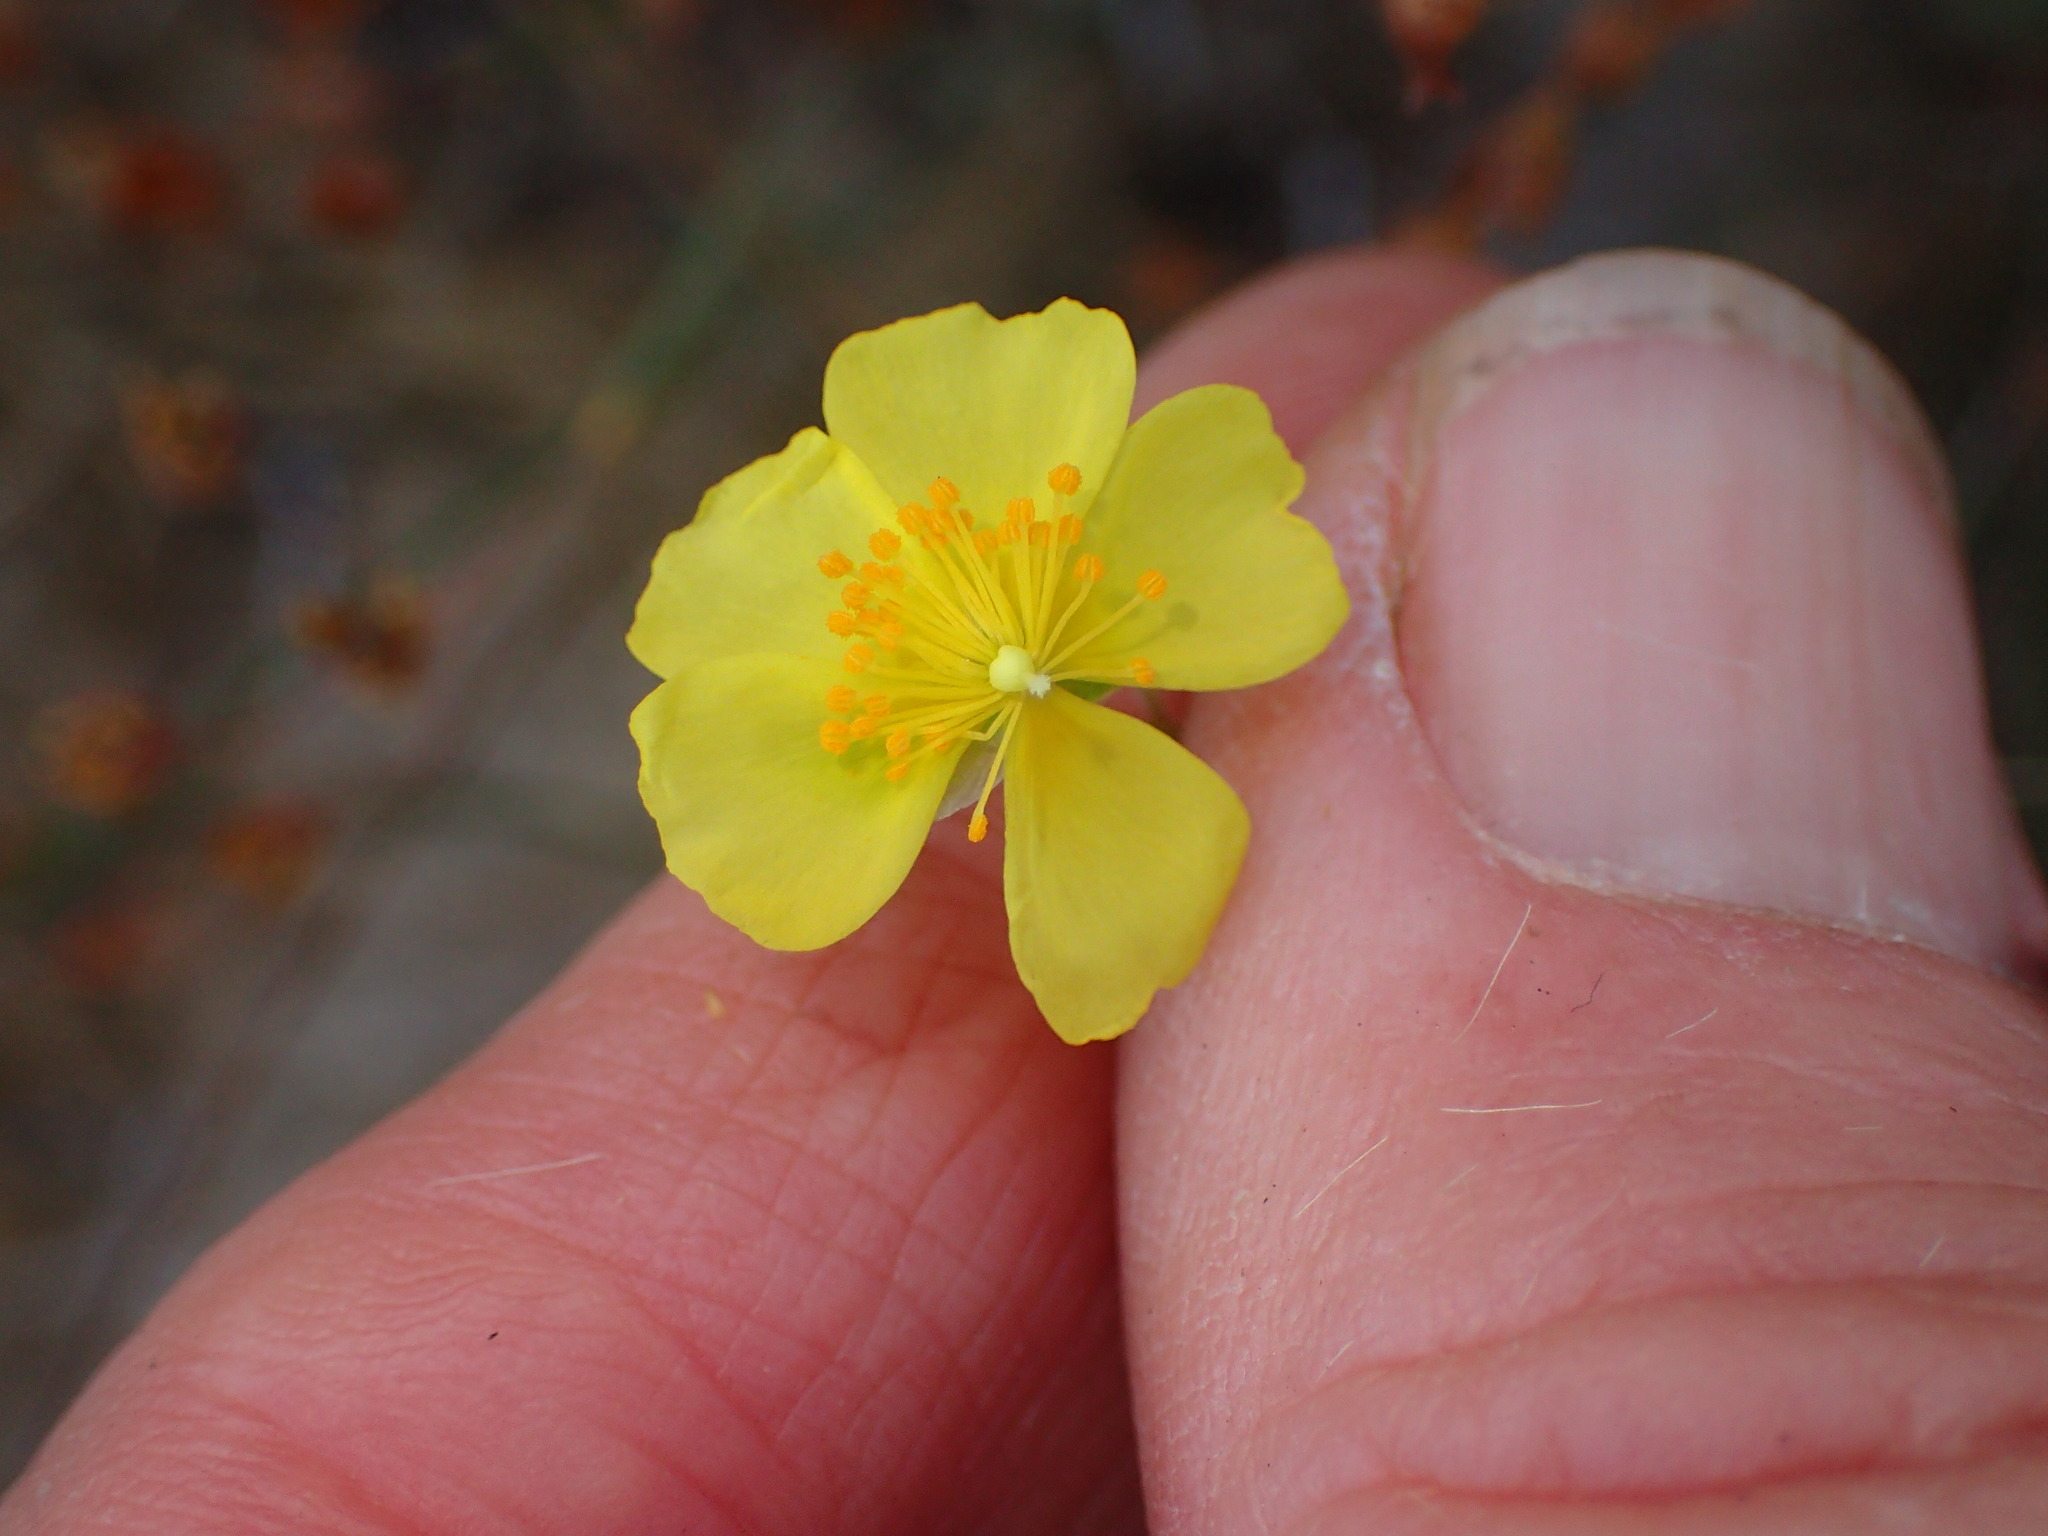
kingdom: Plantae
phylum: Tracheophyta
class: Magnoliopsida
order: Malvales
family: Cistaceae
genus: Crocanthemum
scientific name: Crocanthemum scoparium
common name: Broom-rose
